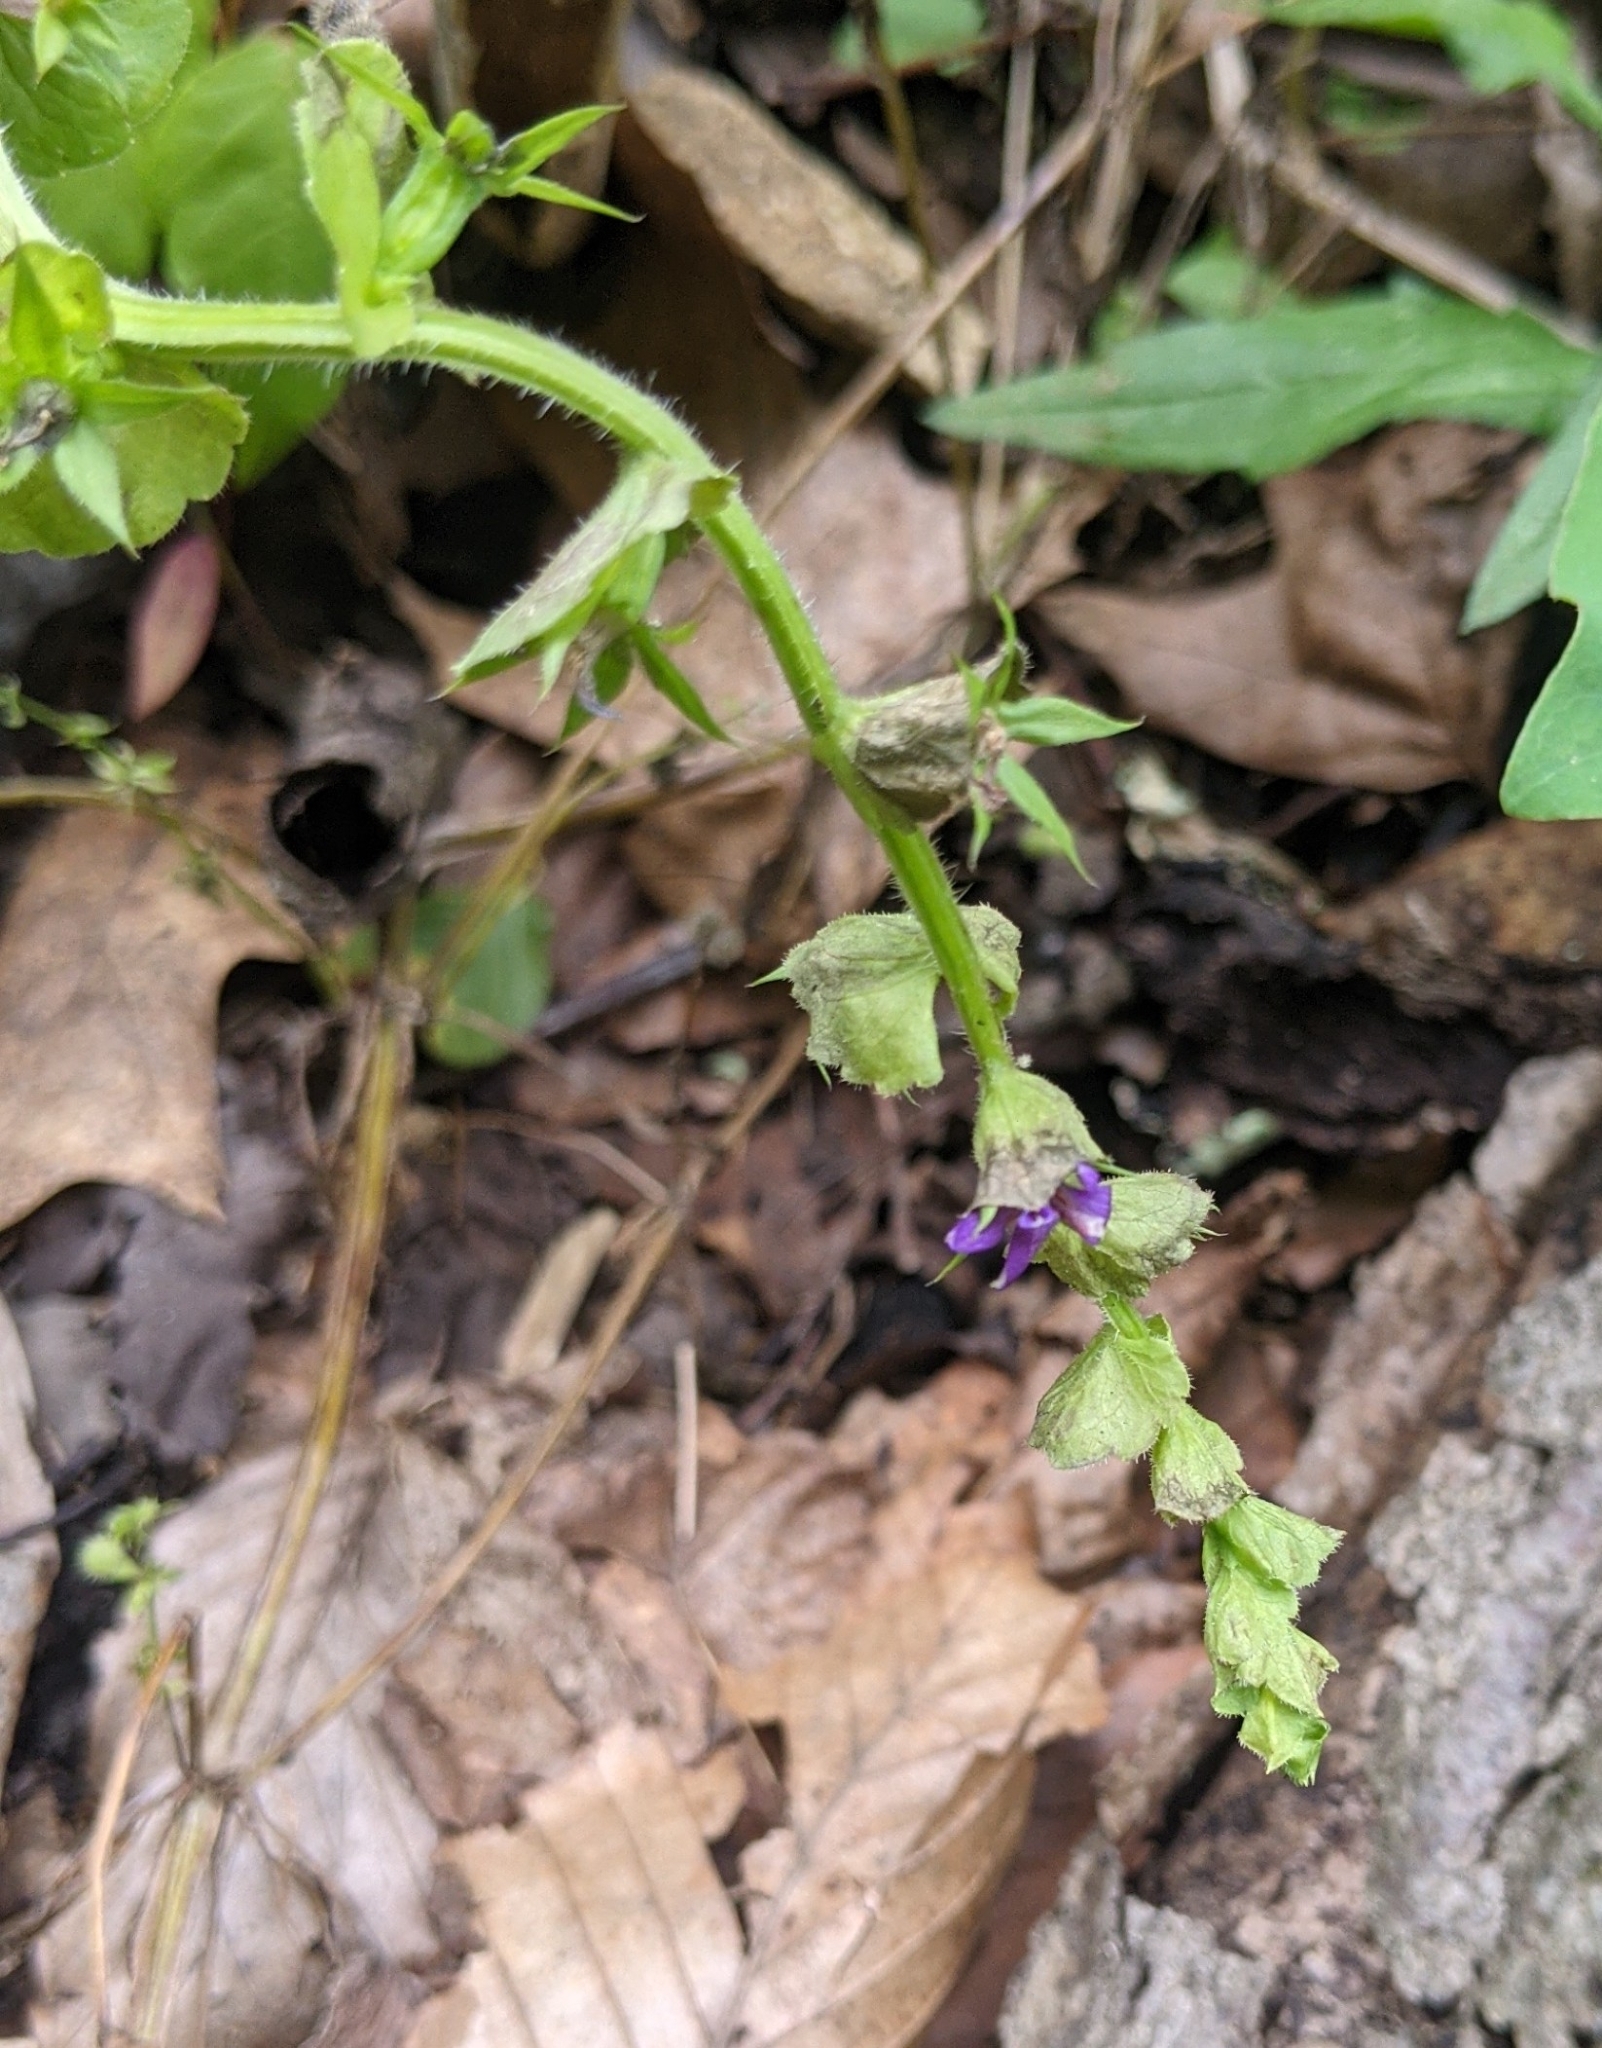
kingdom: Plantae
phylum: Tracheophyta
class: Magnoliopsida
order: Asterales
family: Campanulaceae
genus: Triodanis
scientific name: Triodanis perfoliata
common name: Clasping venus' looking-glass
